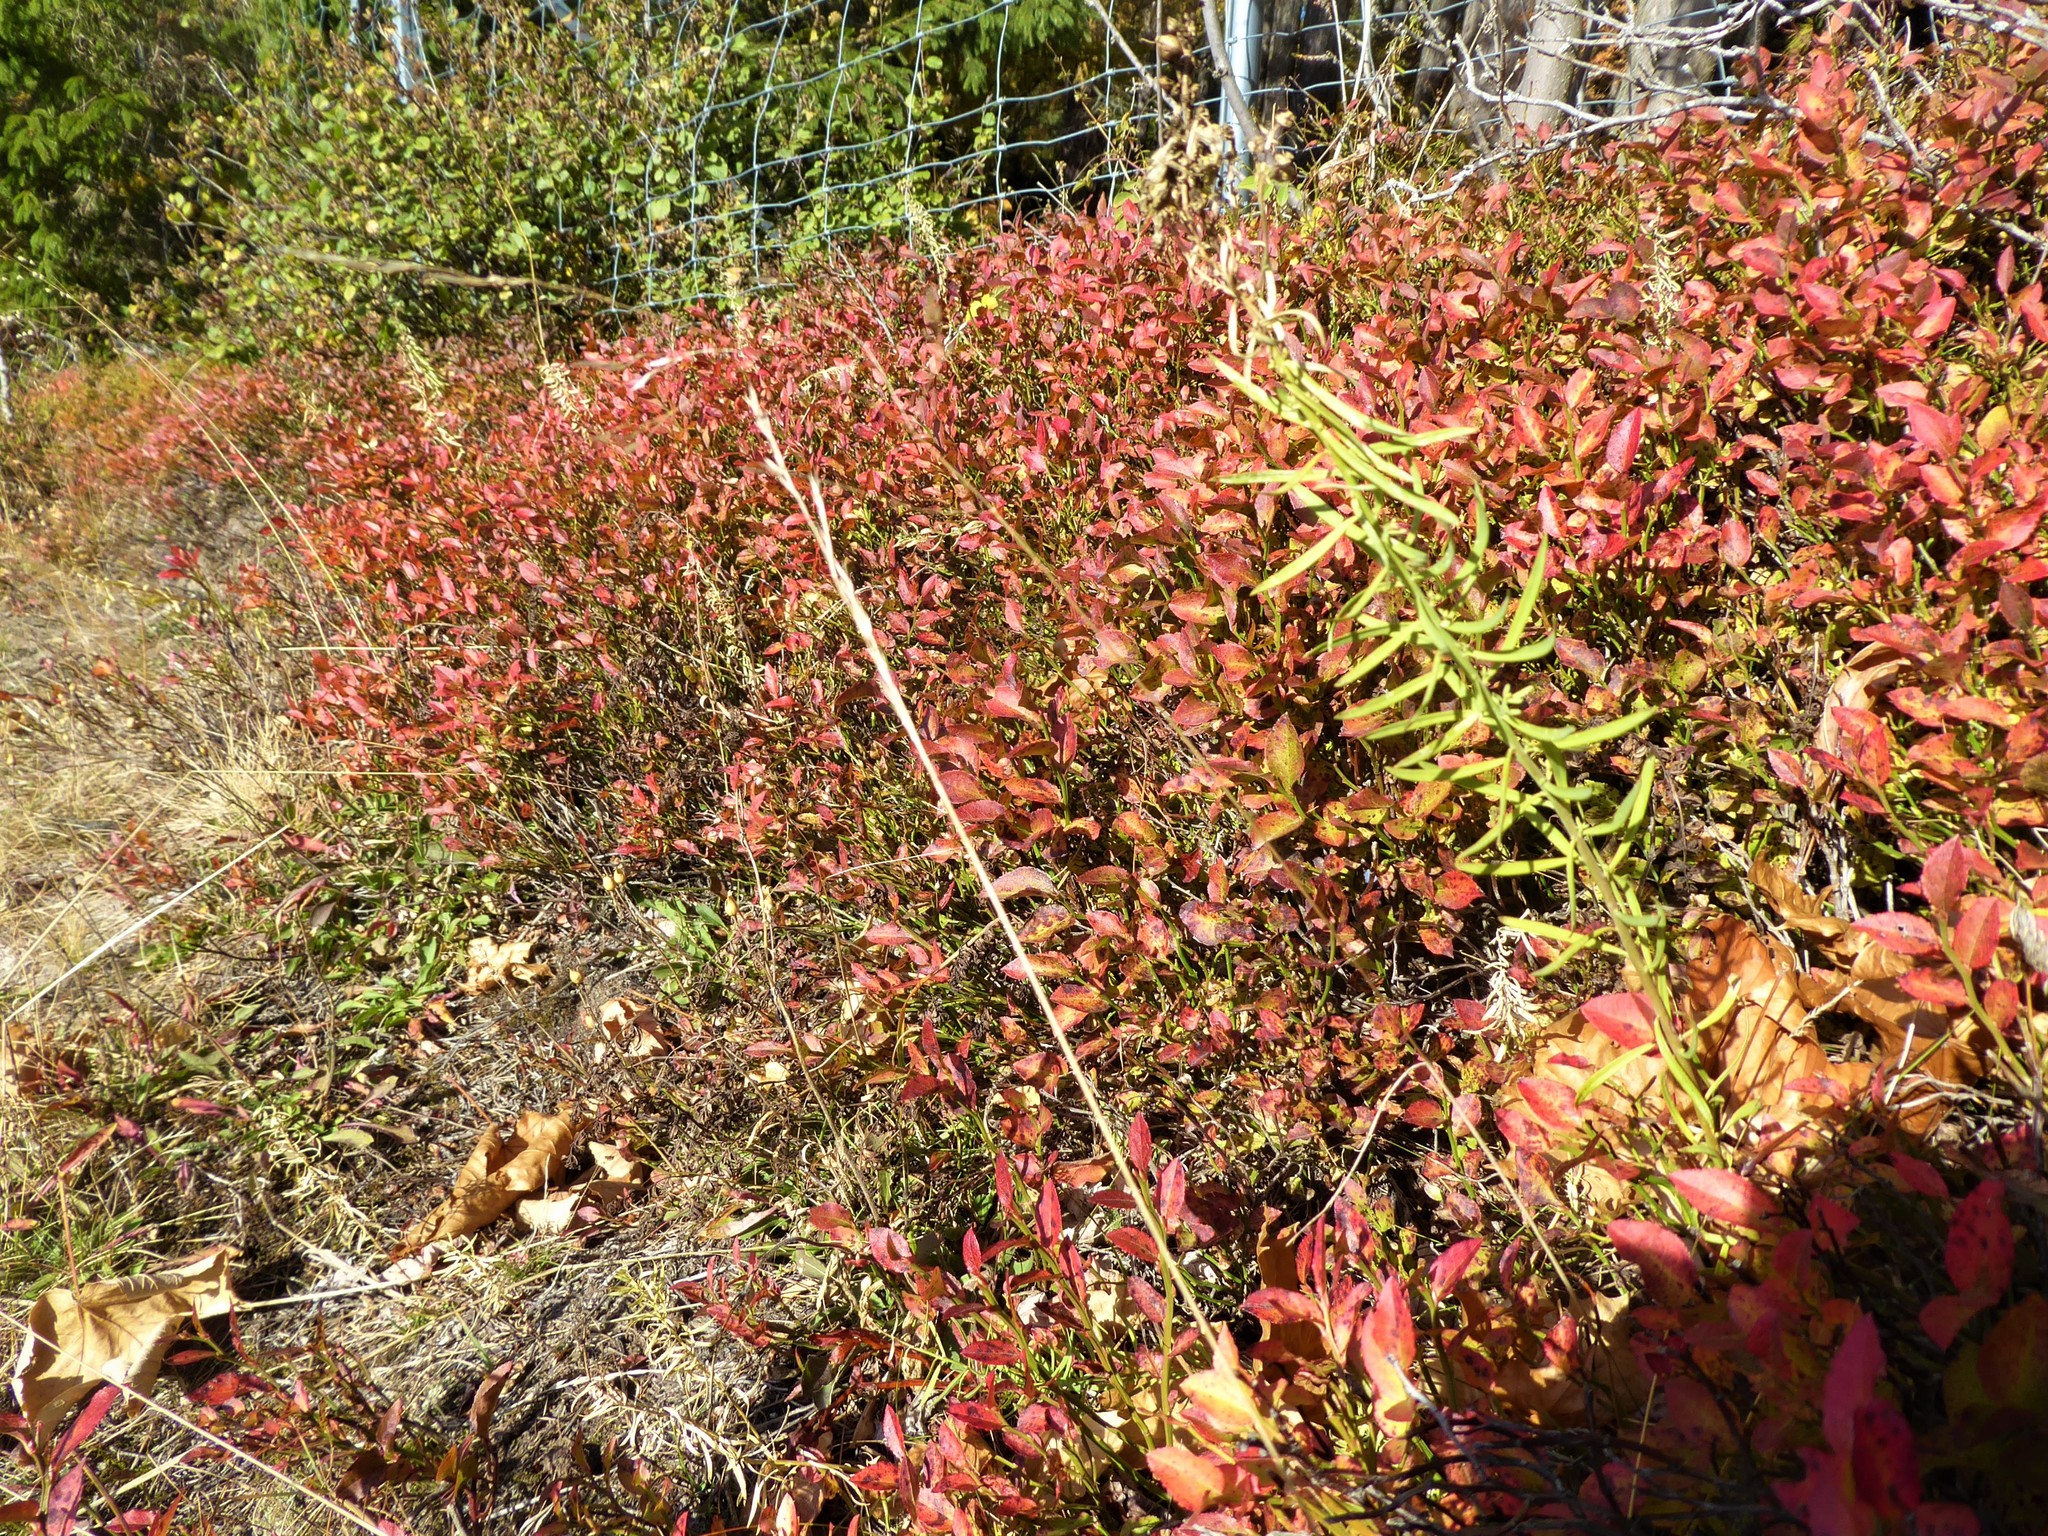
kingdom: Plantae
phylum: Tracheophyta
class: Magnoliopsida
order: Ericales
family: Ericaceae
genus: Vaccinium
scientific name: Vaccinium myrtillus
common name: Bilberry
